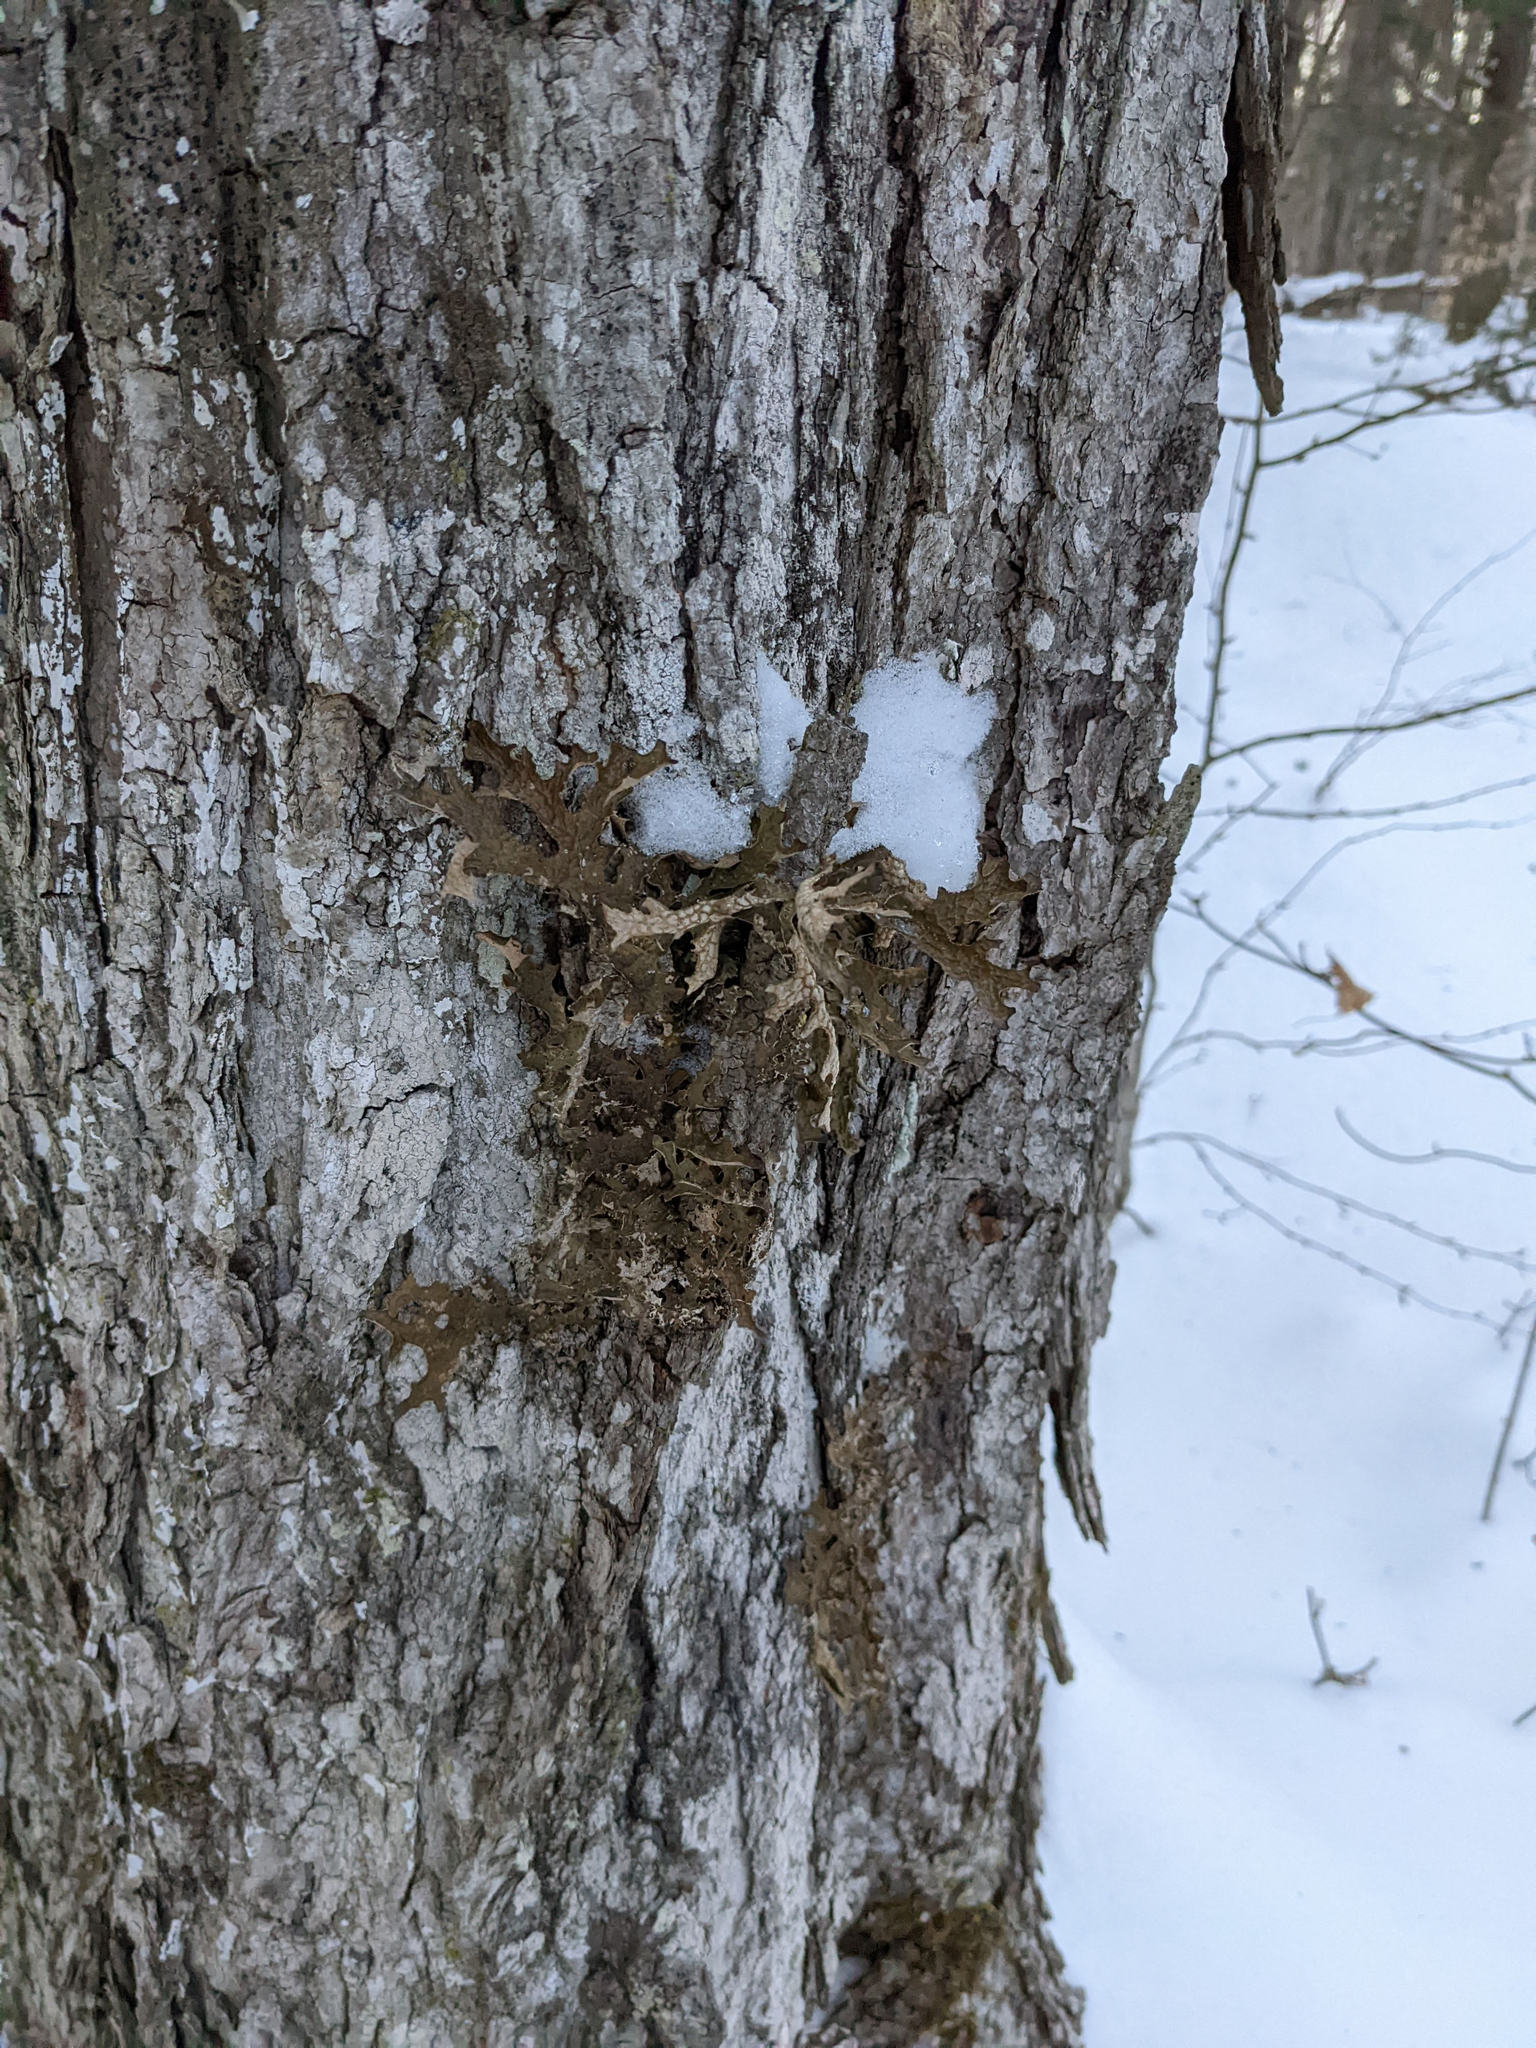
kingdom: Fungi
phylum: Ascomycota
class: Lecanoromycetes
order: Peltigerales
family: Lobariaceae
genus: Lobaria
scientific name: Lobaria pulmonaria
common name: Lungwort
